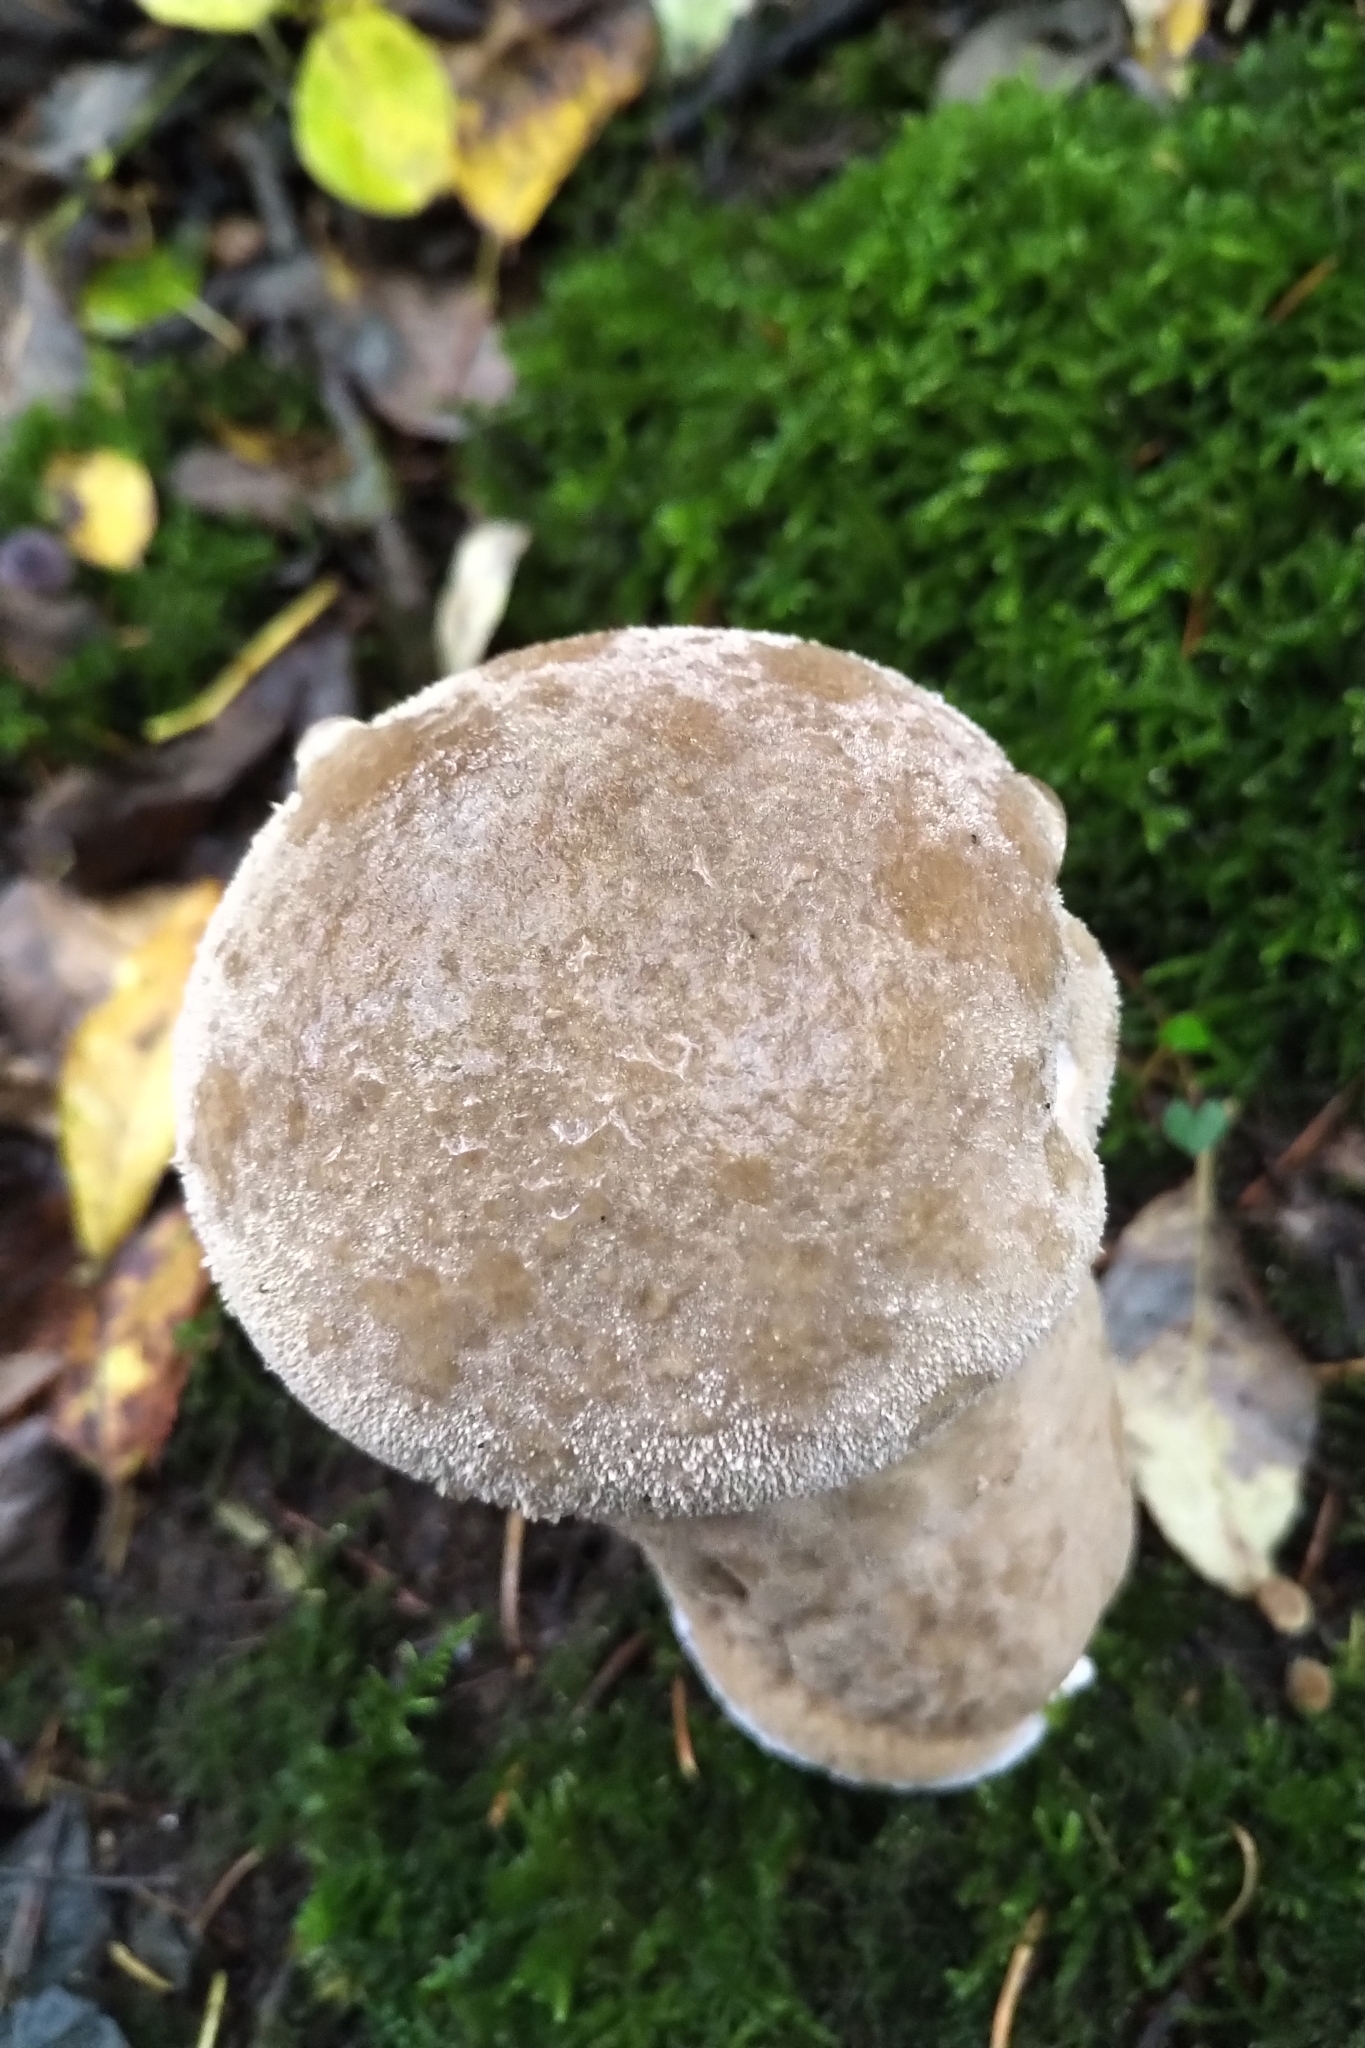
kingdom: Fungi
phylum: Basidiomycota
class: Agaricomycetes
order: Agaricales
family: Lycoperdaceae
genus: Lycoperdon
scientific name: Lycoperdon excipuliforme
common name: Pestle puffball
